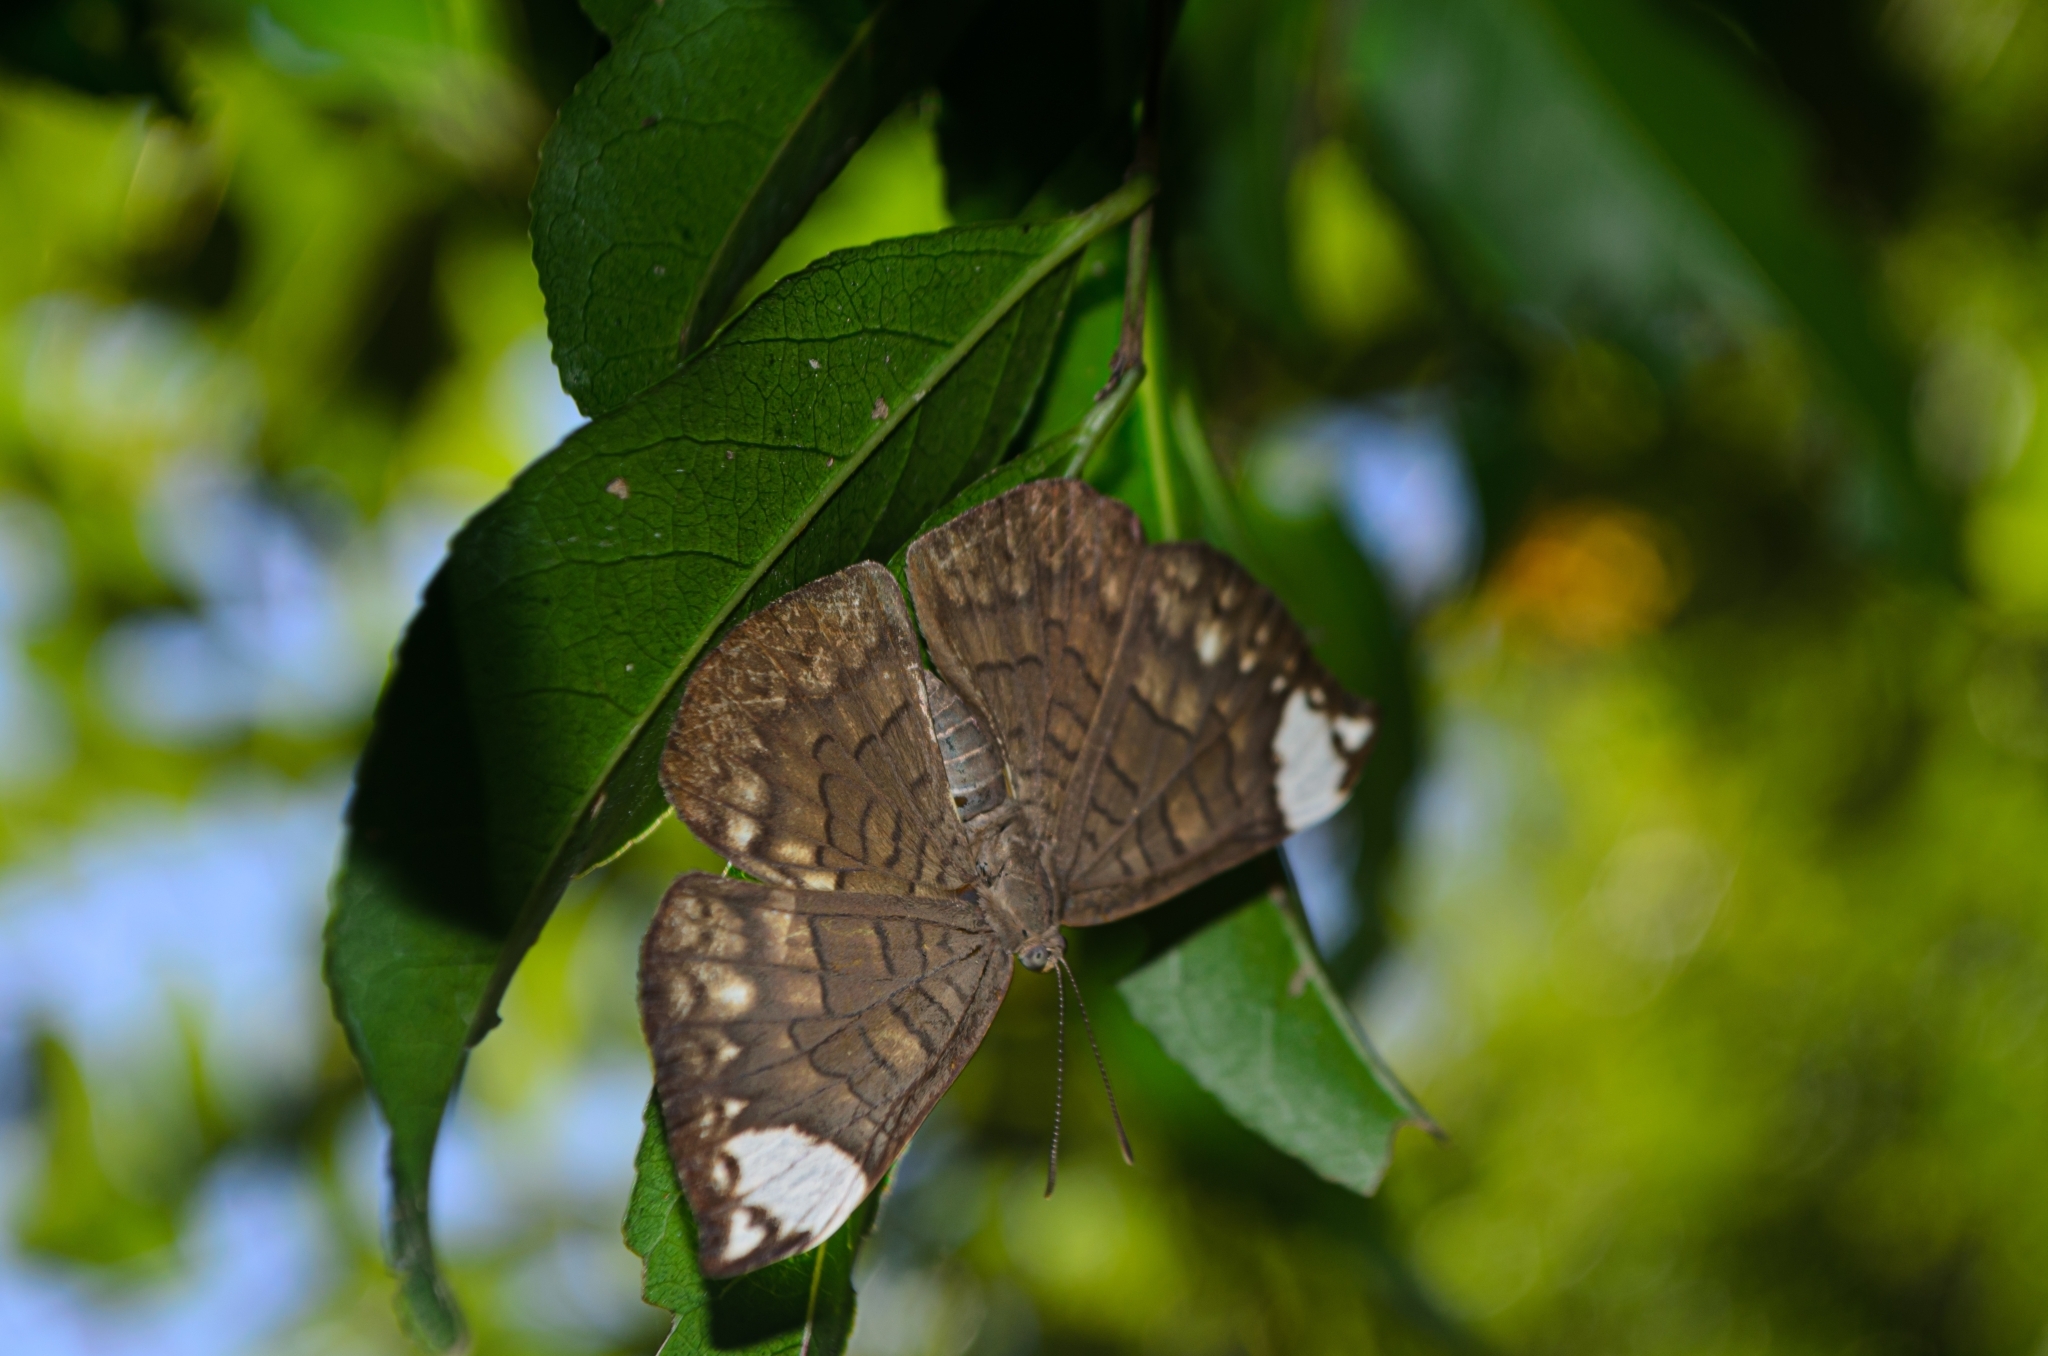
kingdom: Animalia
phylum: Arthropoda
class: Insecta
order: Lepidoptera
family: Lycaenidae
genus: Emesis
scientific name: Emesis lucinda
